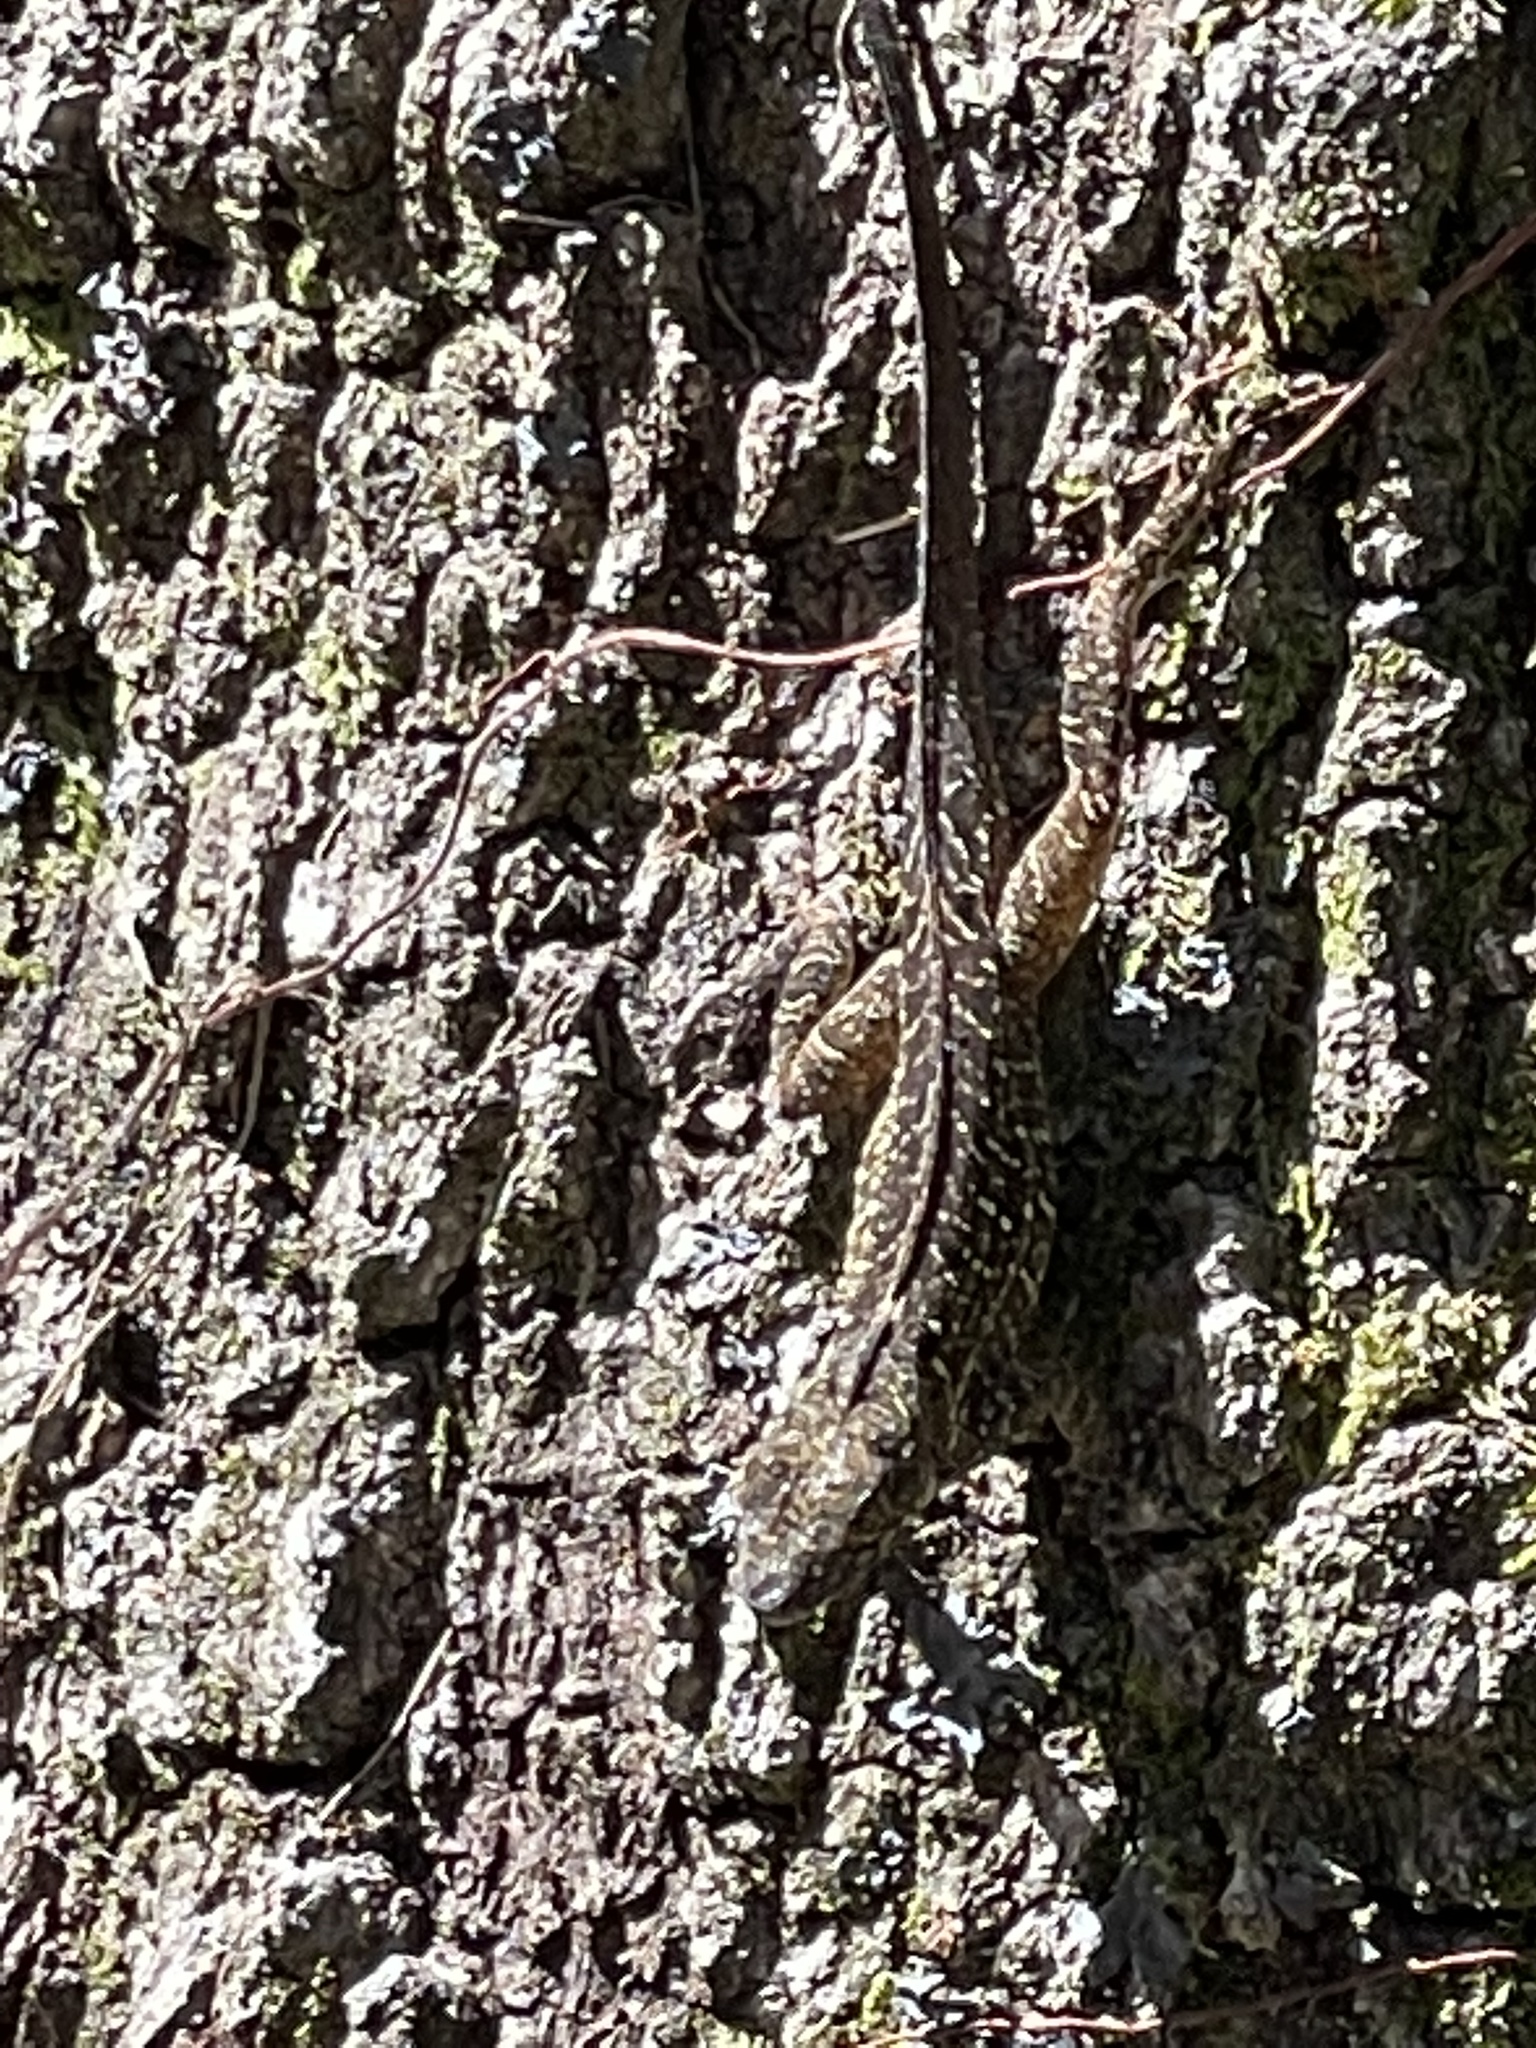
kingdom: Animalia
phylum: Chordata
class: Squamata
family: Dactyloidae
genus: Anolis
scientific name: Anolis sagrei
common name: Brown anole
